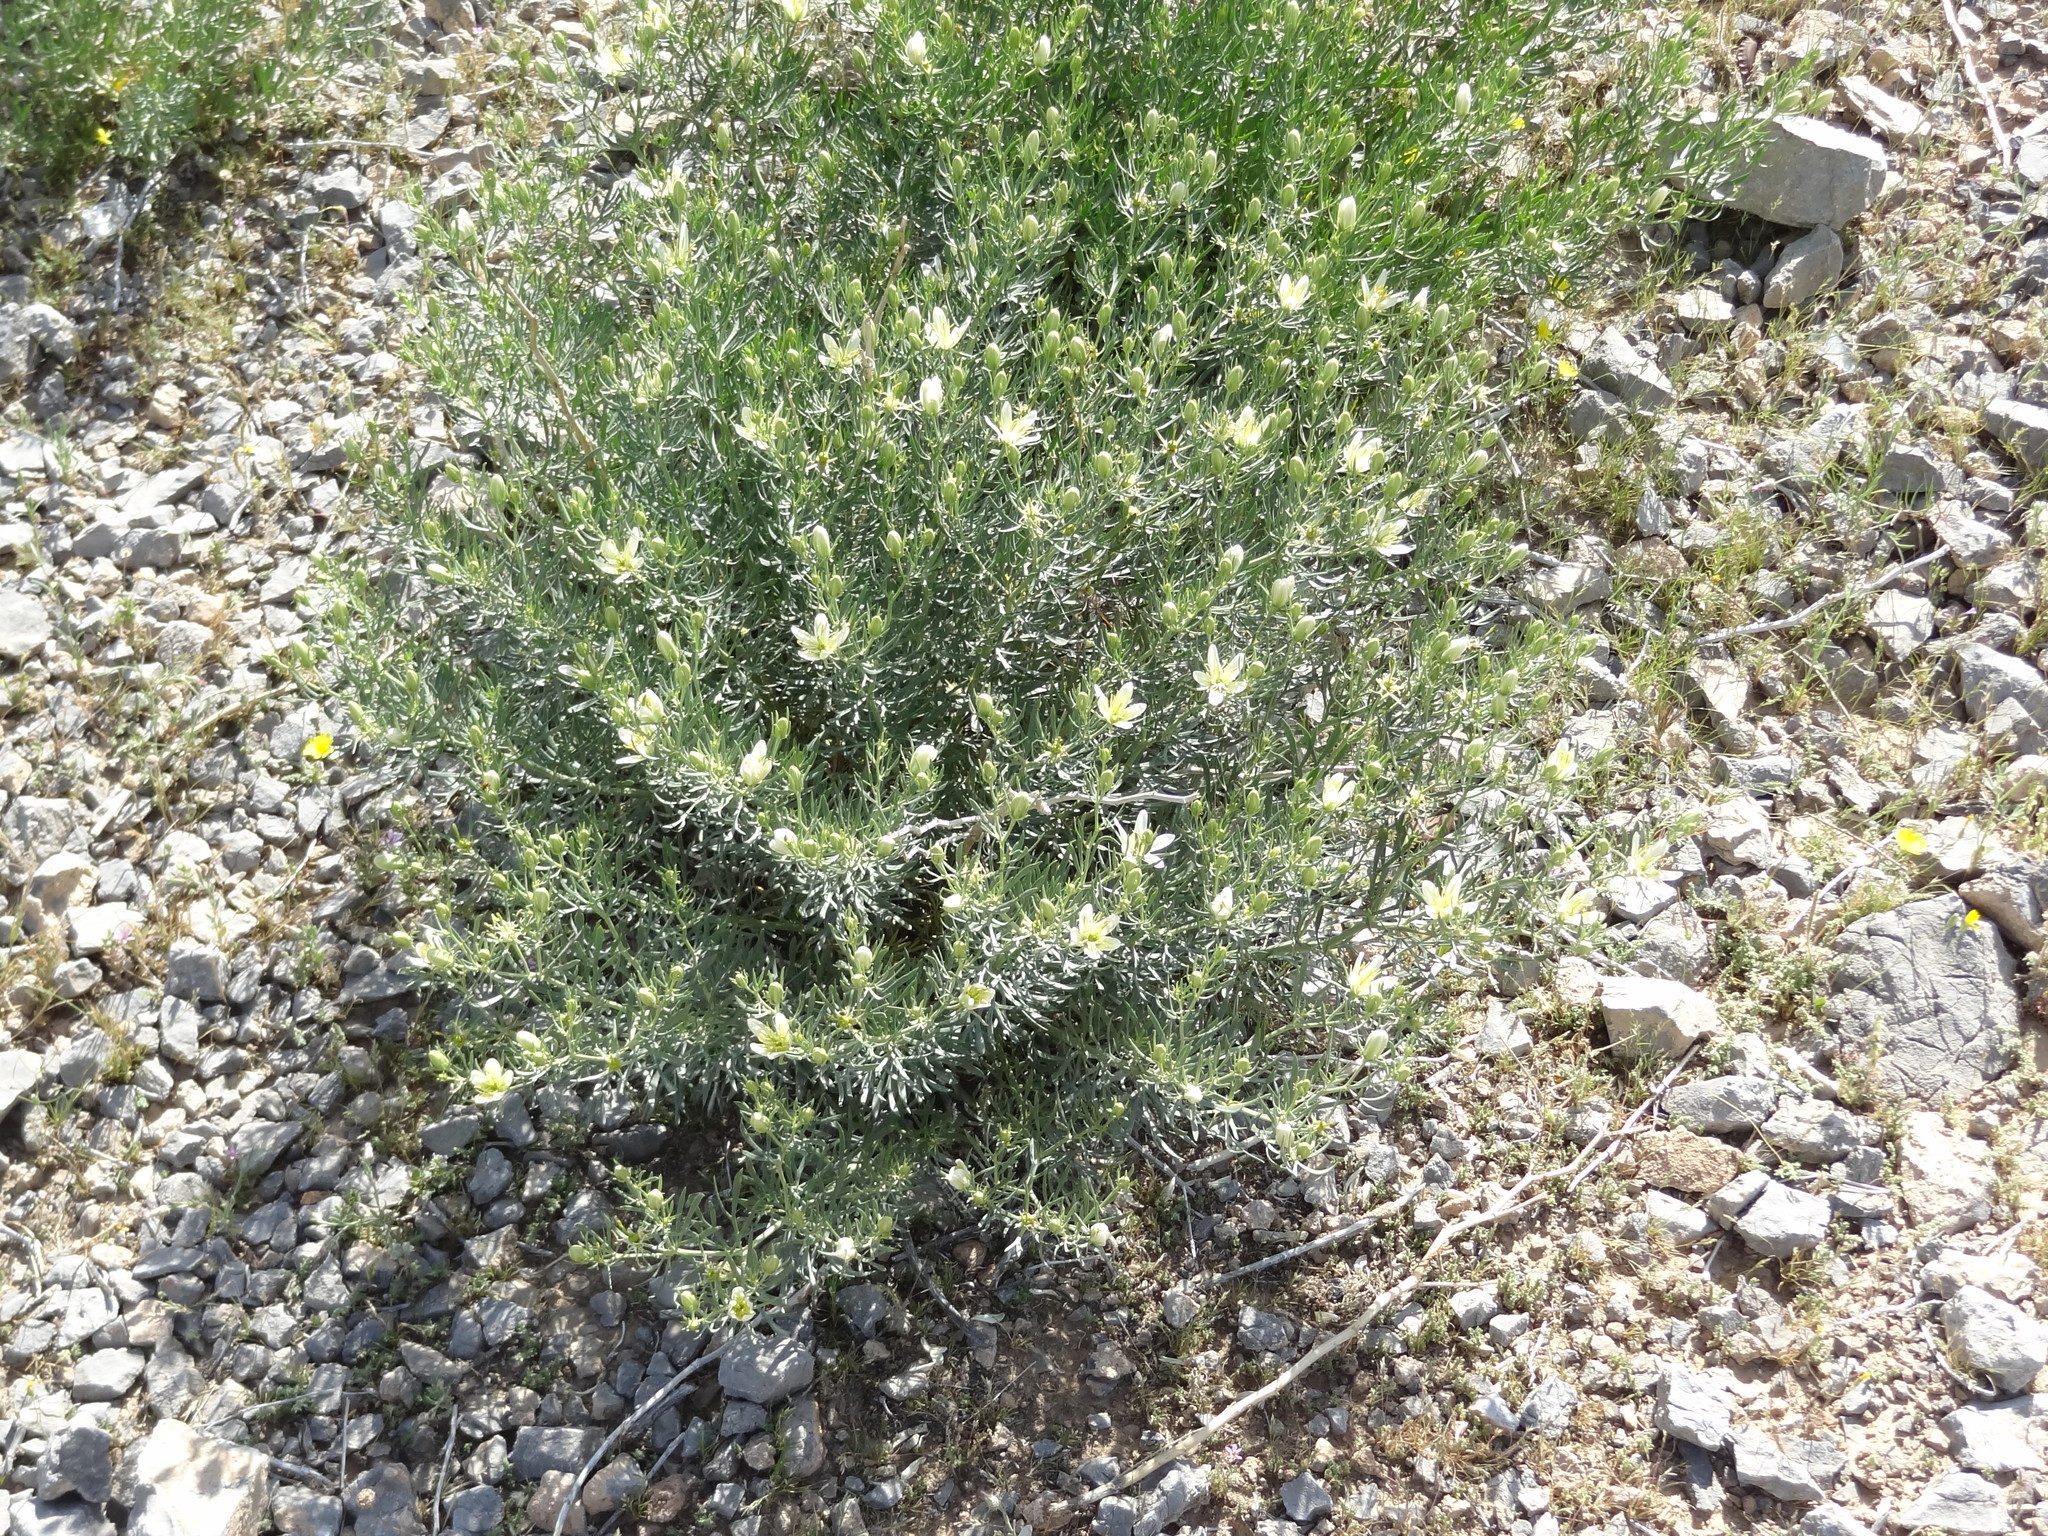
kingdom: Plantae
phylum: Tracheophyta
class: Magnoliopsida
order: Sapindales
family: Tetradiclidaceae
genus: Peganum
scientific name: Peganum harmala
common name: Harmal peganum
